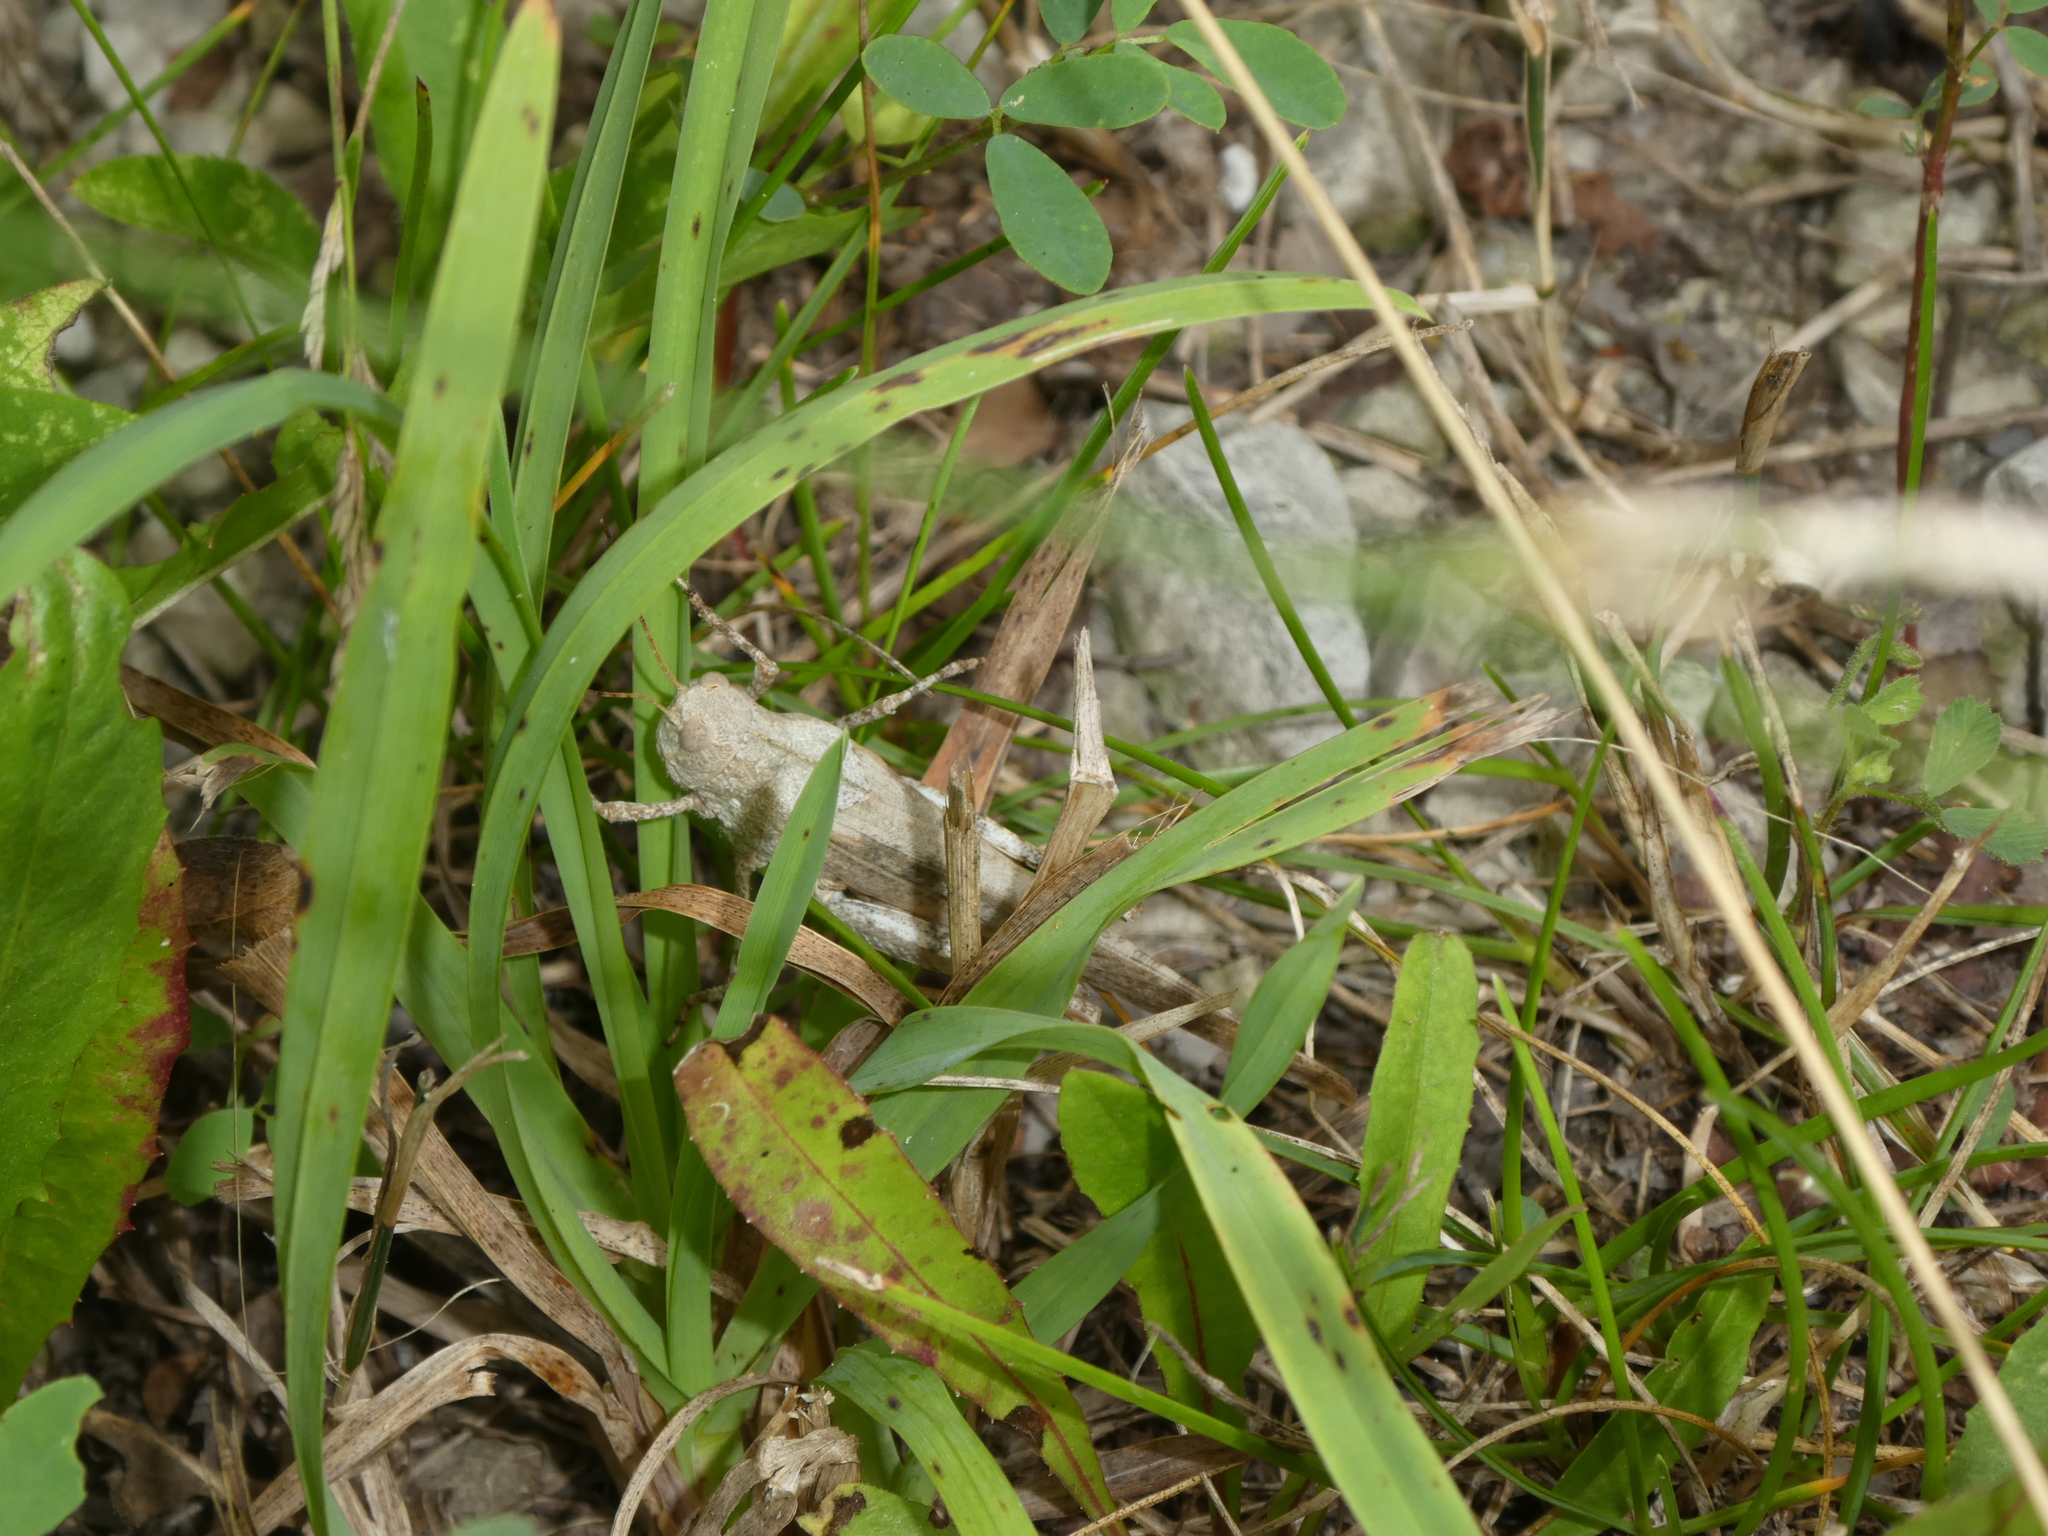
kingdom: Animalia
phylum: Arthropoda
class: Insecta
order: Orthoptera
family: Acrididae
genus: Dissosteira
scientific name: Dissosteira carolina
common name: Carolina grasshopper
